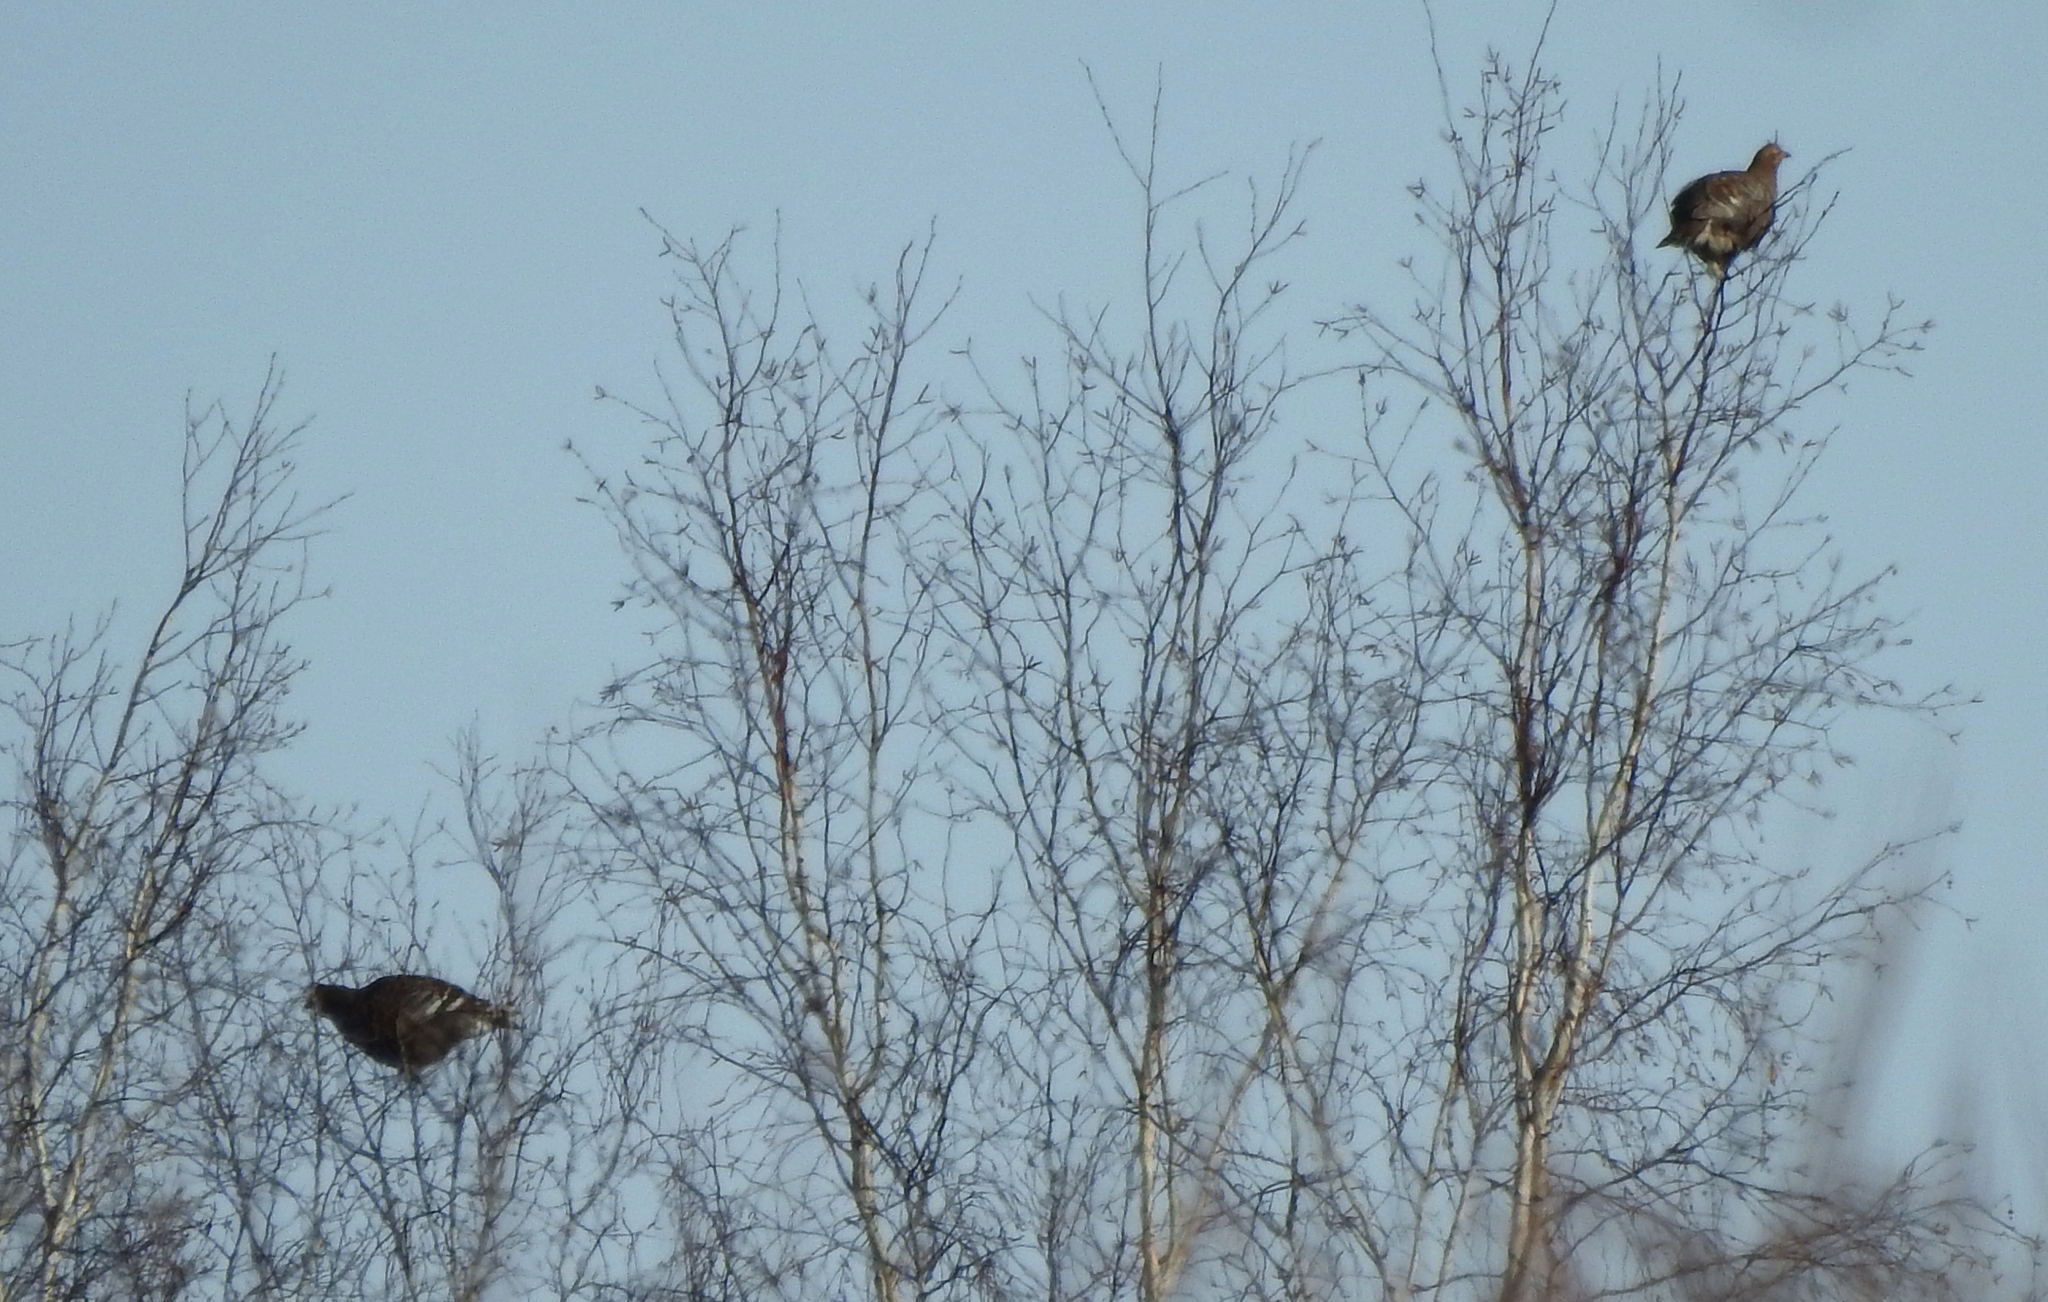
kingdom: Animalia
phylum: Chordata
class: Aves
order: Galliformes
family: Phasianidae
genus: Lyrurus
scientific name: Lyrurus tetrix
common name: Black grouse
